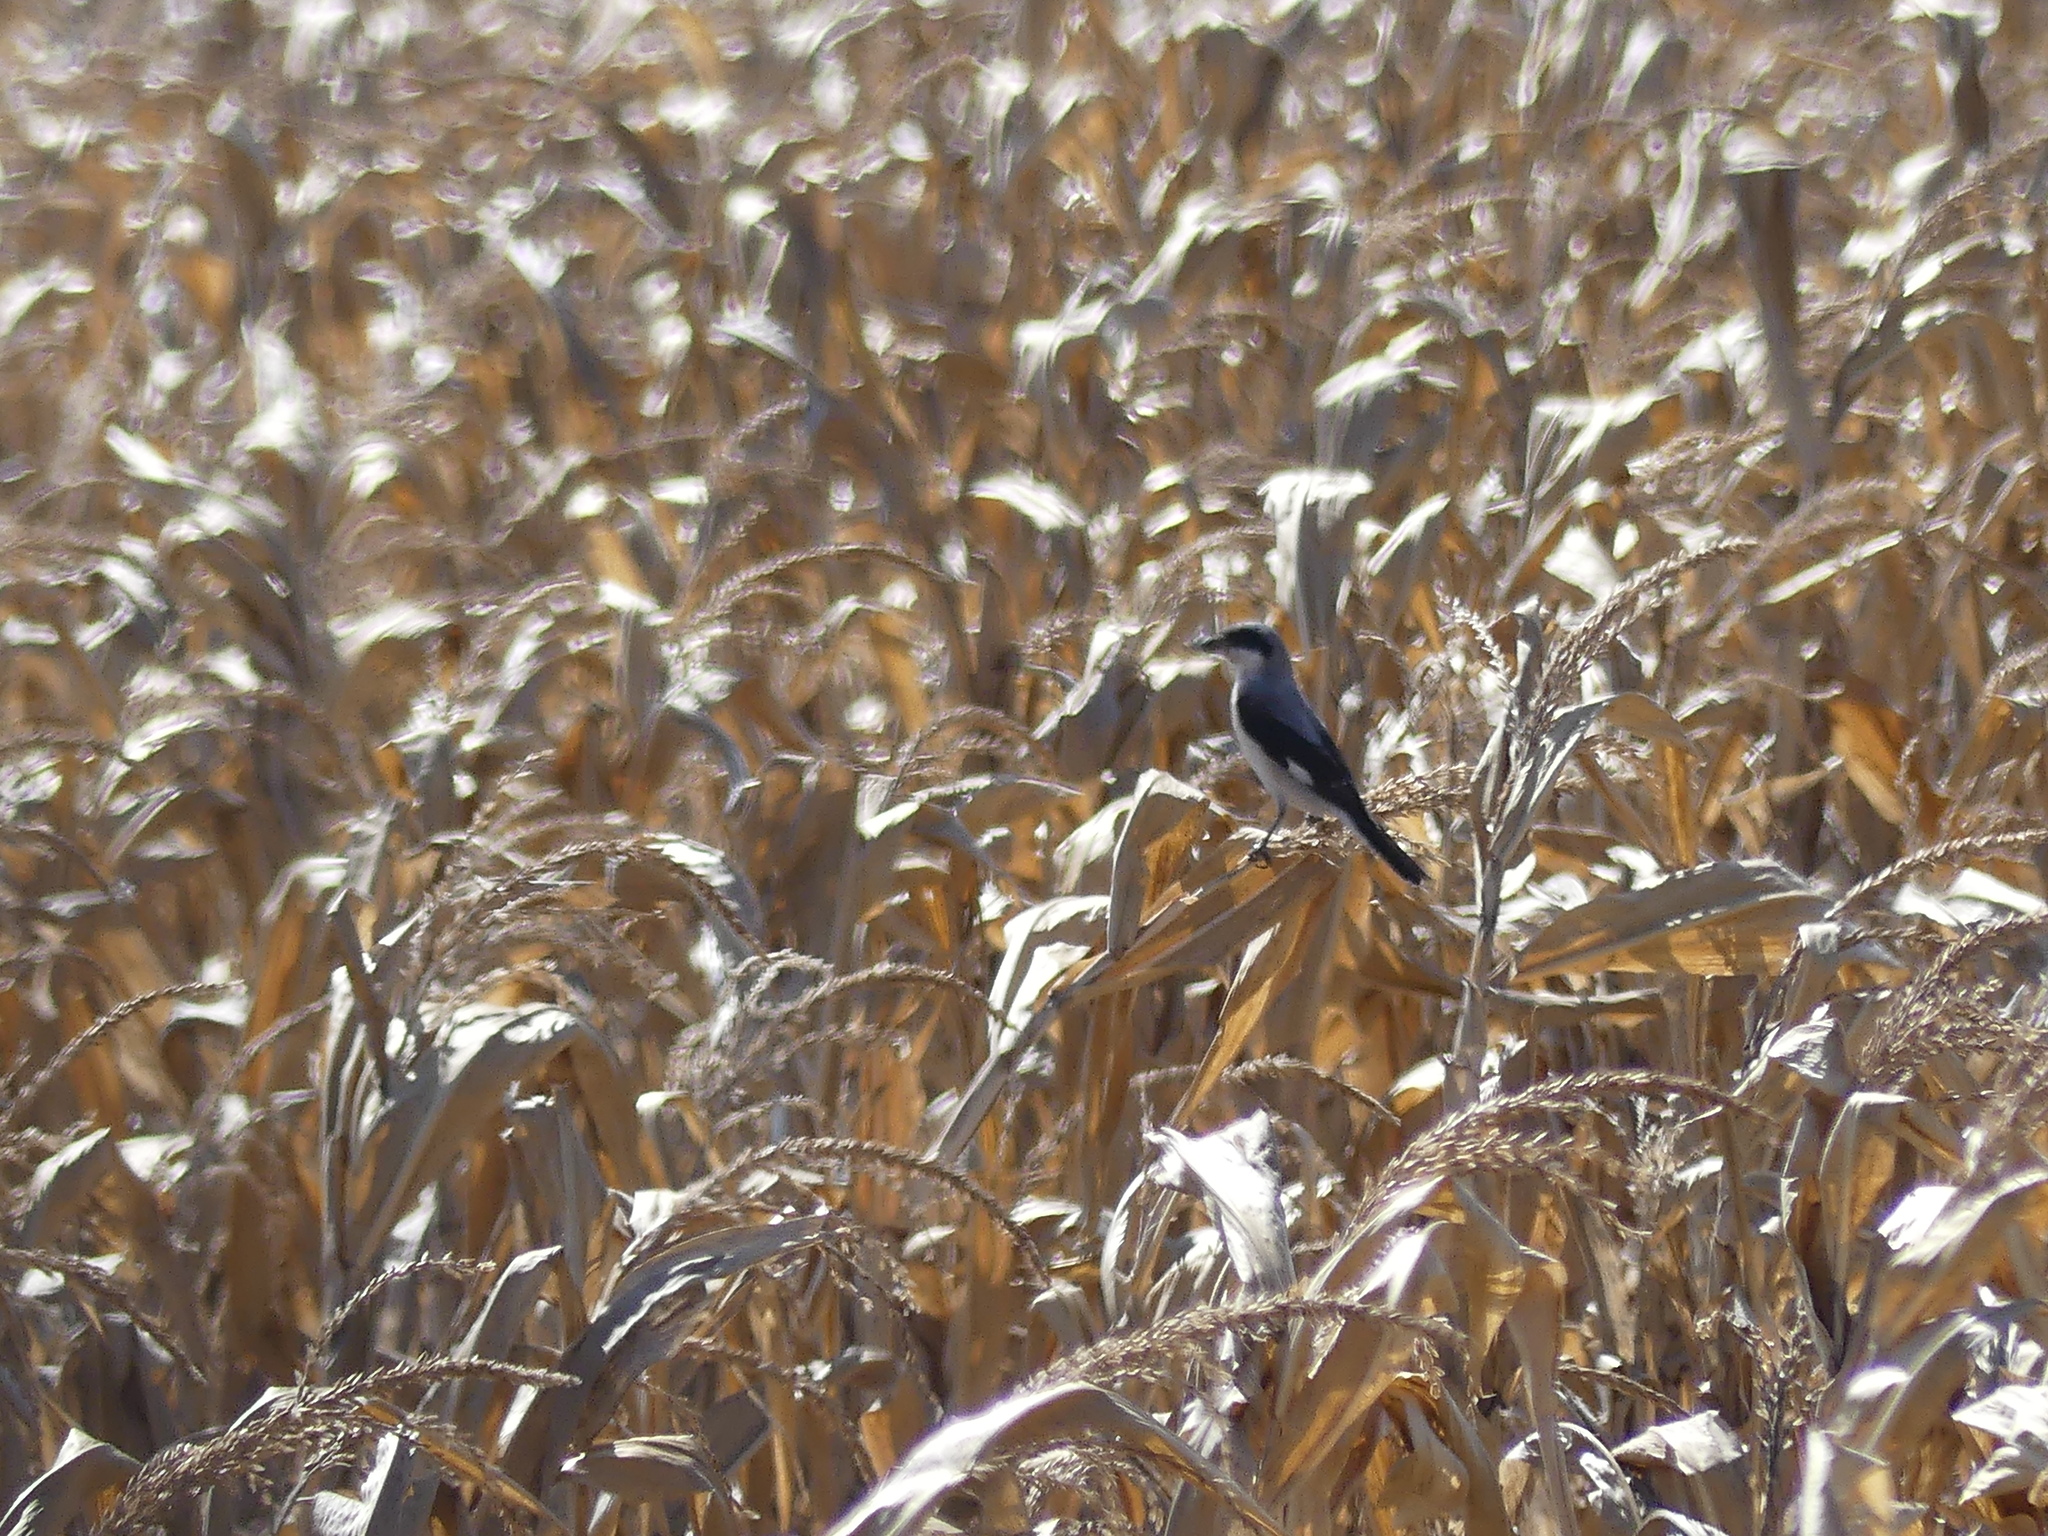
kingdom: Animalia
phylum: Chordata
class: Aves
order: Passeriformes
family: Laniidae
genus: Lanius
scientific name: Lanius minor
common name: Lesser grey shrike
